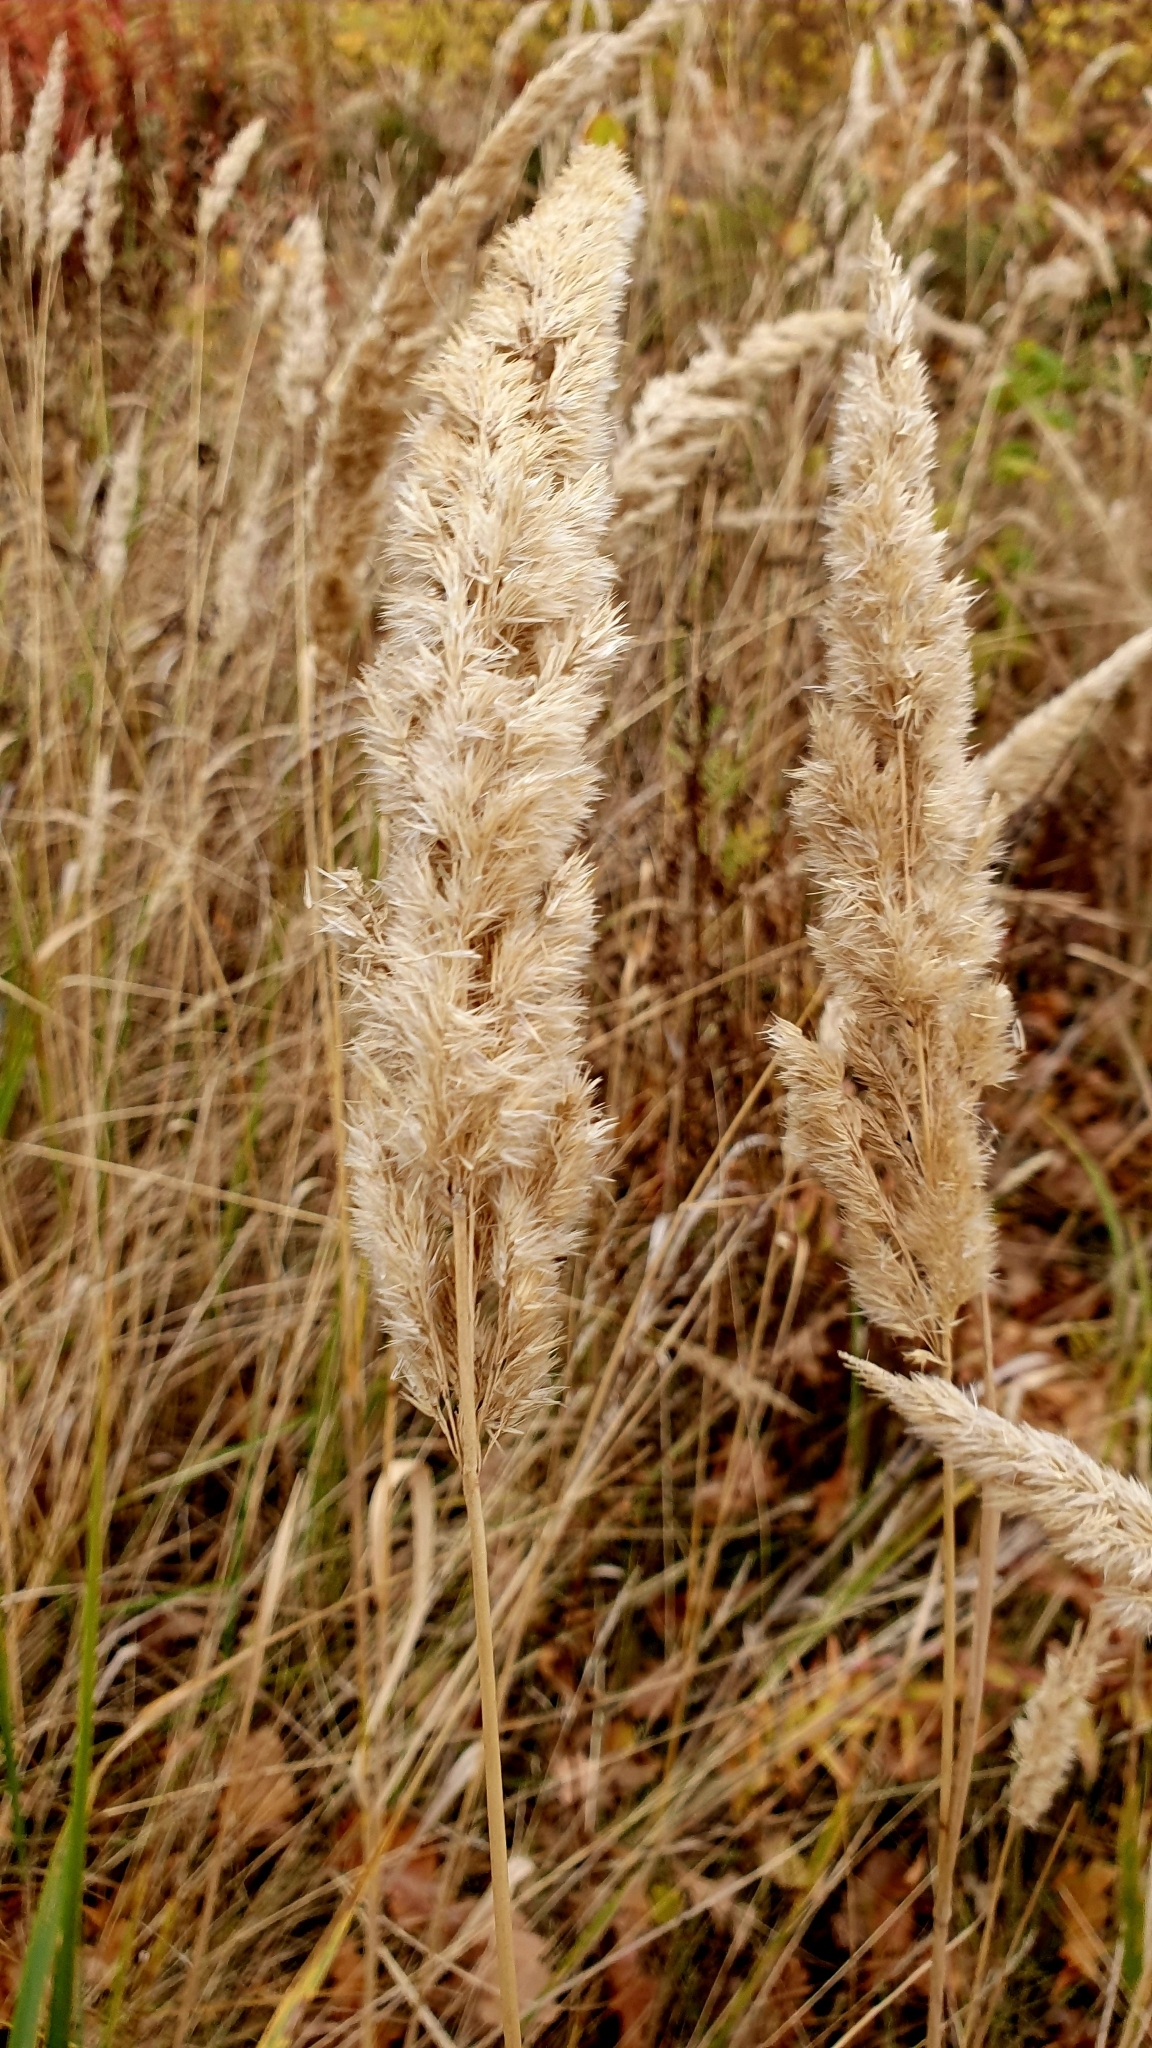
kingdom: Plantae
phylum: Tracheophyta
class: Liliopsida
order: Poales
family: Poaceae
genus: Calamagrostis
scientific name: Calamagrostis epigejos
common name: Wood small-reed
